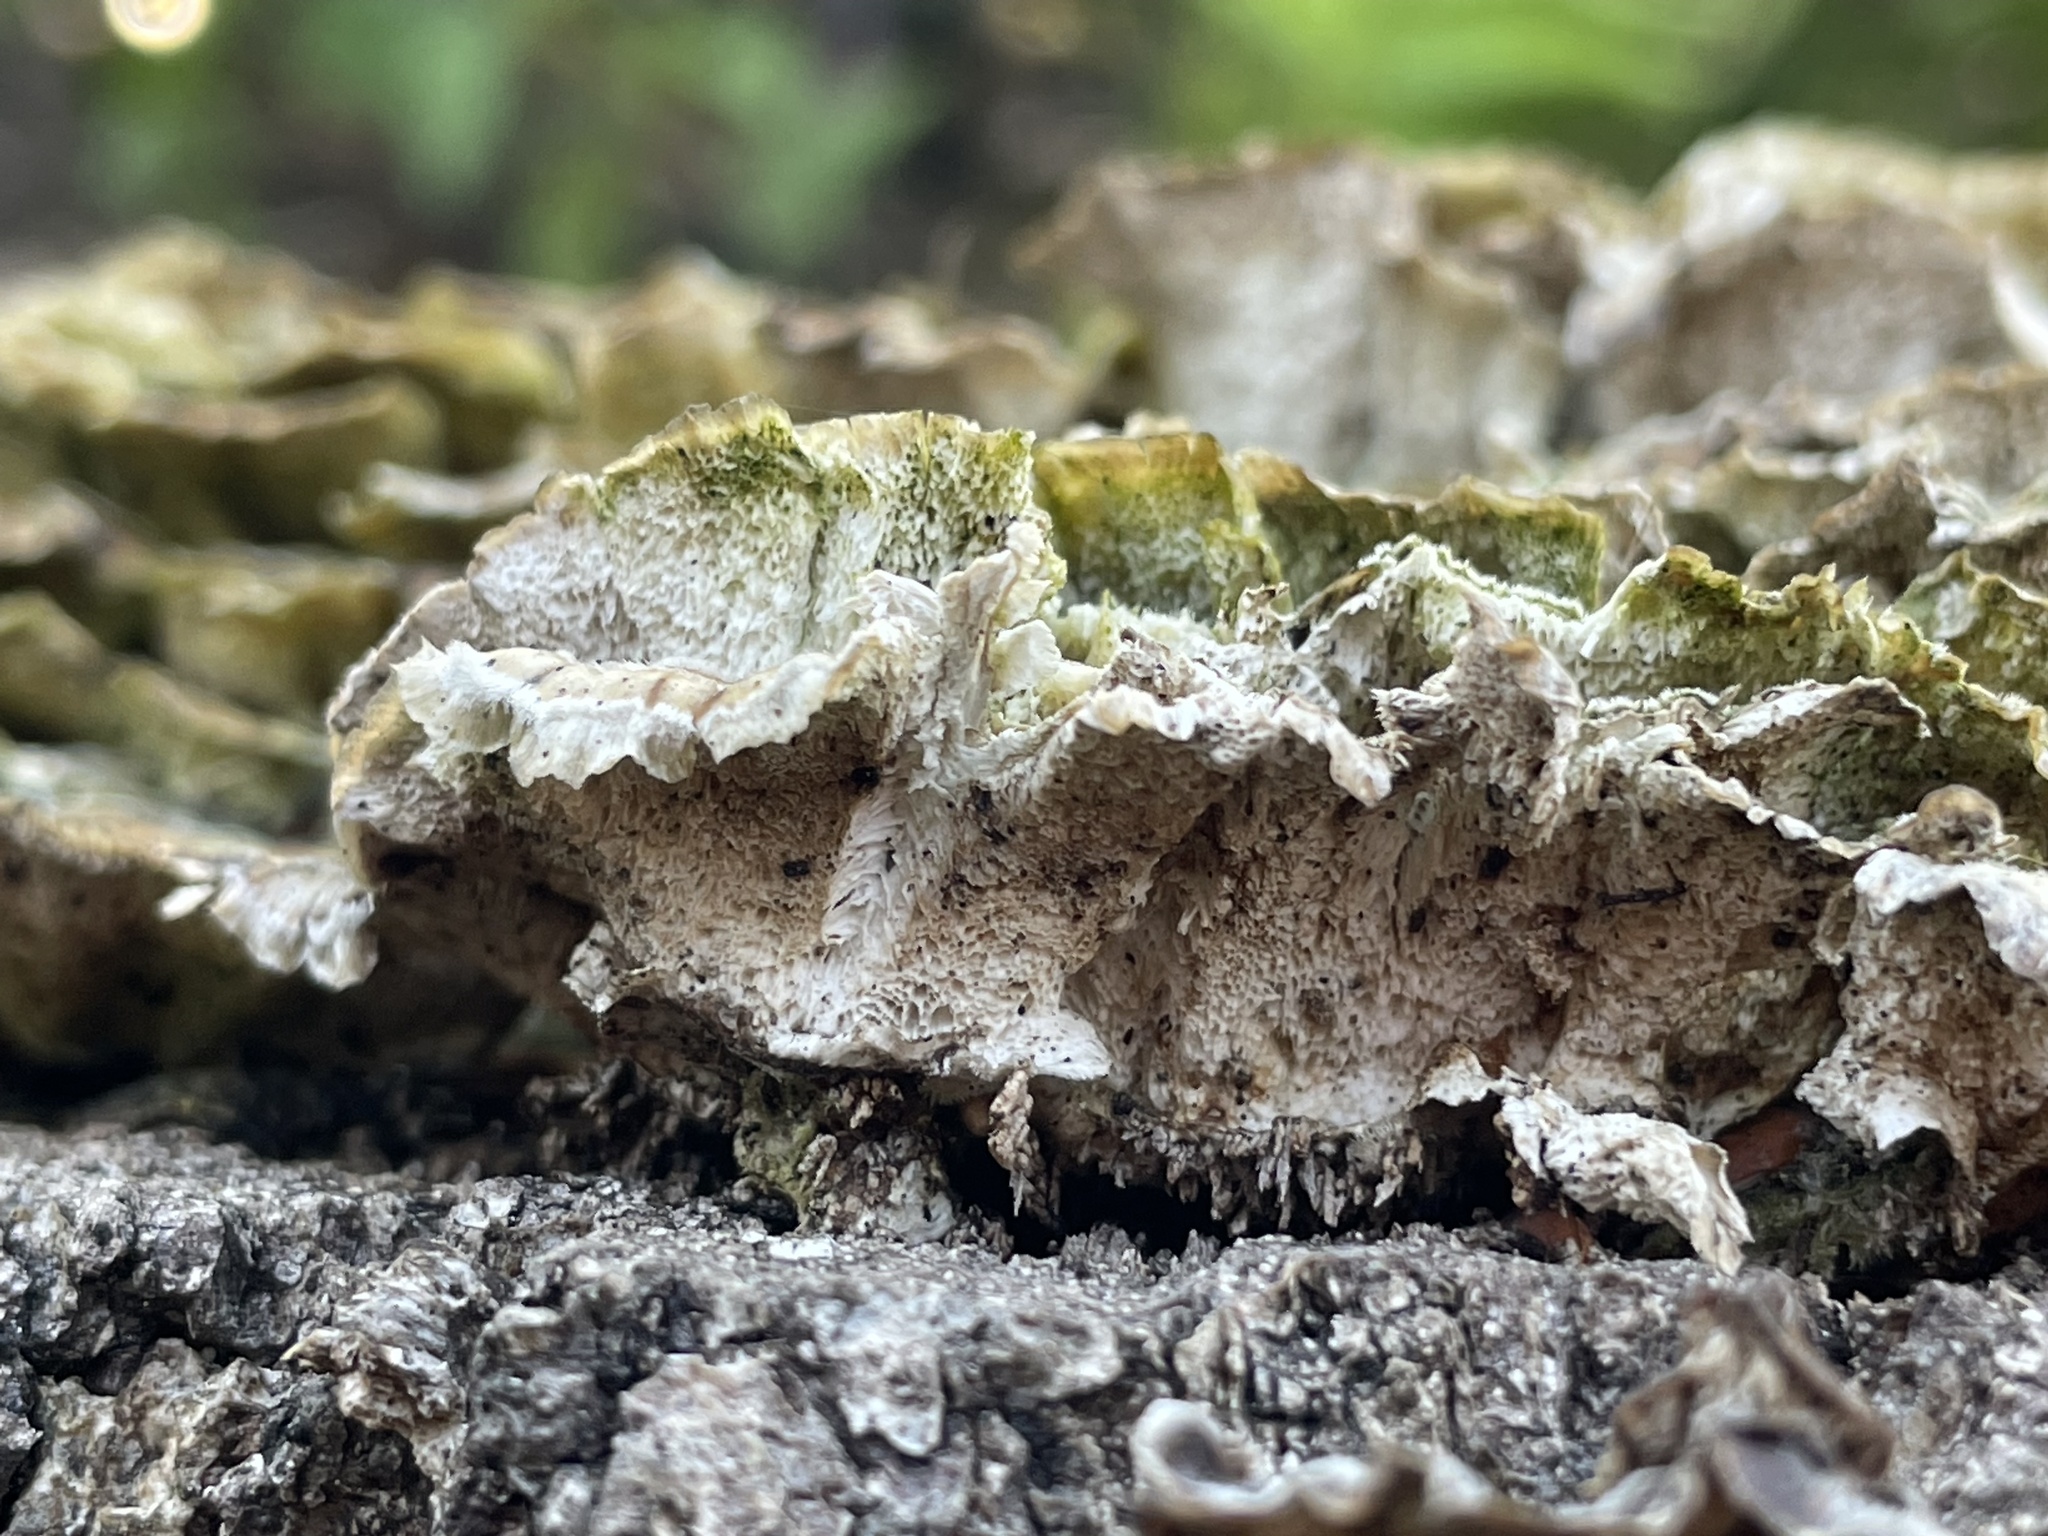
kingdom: Fungi
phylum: Basidiomycota
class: Agaricomycetes
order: Polyporales
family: Polyporaceae
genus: Trametes
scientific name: Trametes versicolor
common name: Turkeytail
